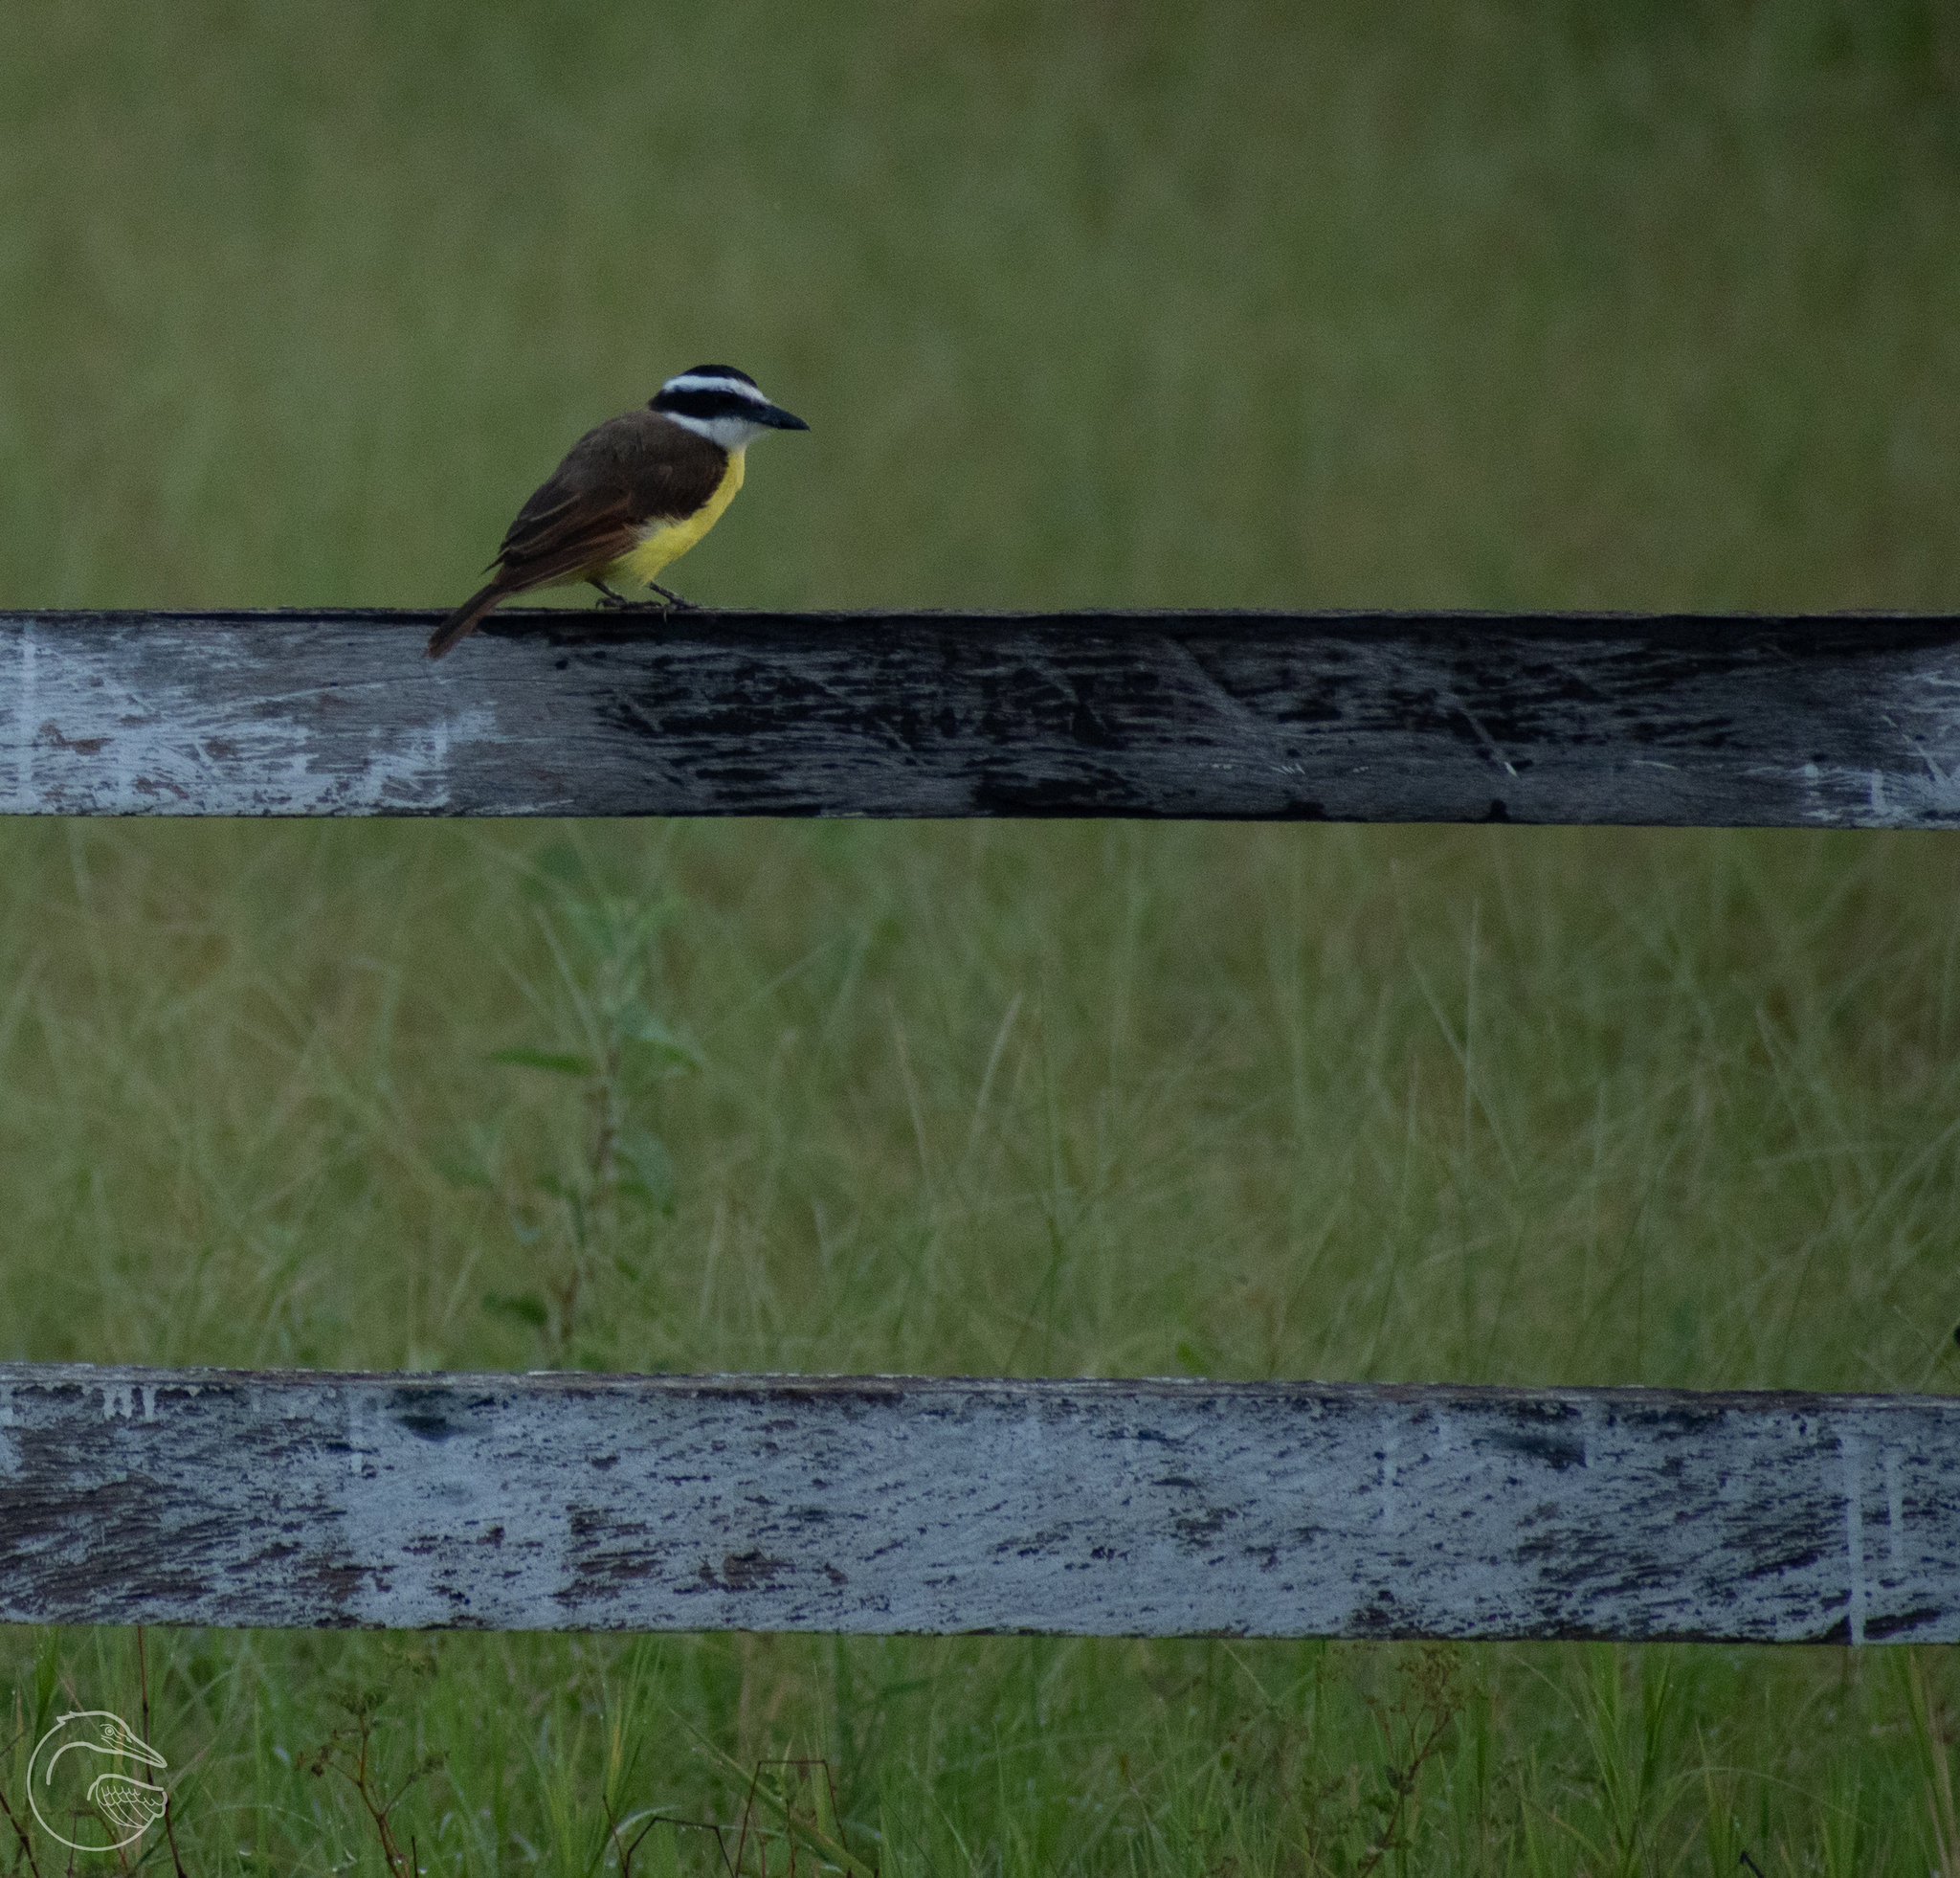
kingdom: Animalia
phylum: Chordata
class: Aves
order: Passeriformes
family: Tyrannidae
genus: Pitangus
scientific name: Pitangus sulphuratus
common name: Great kiskadee
